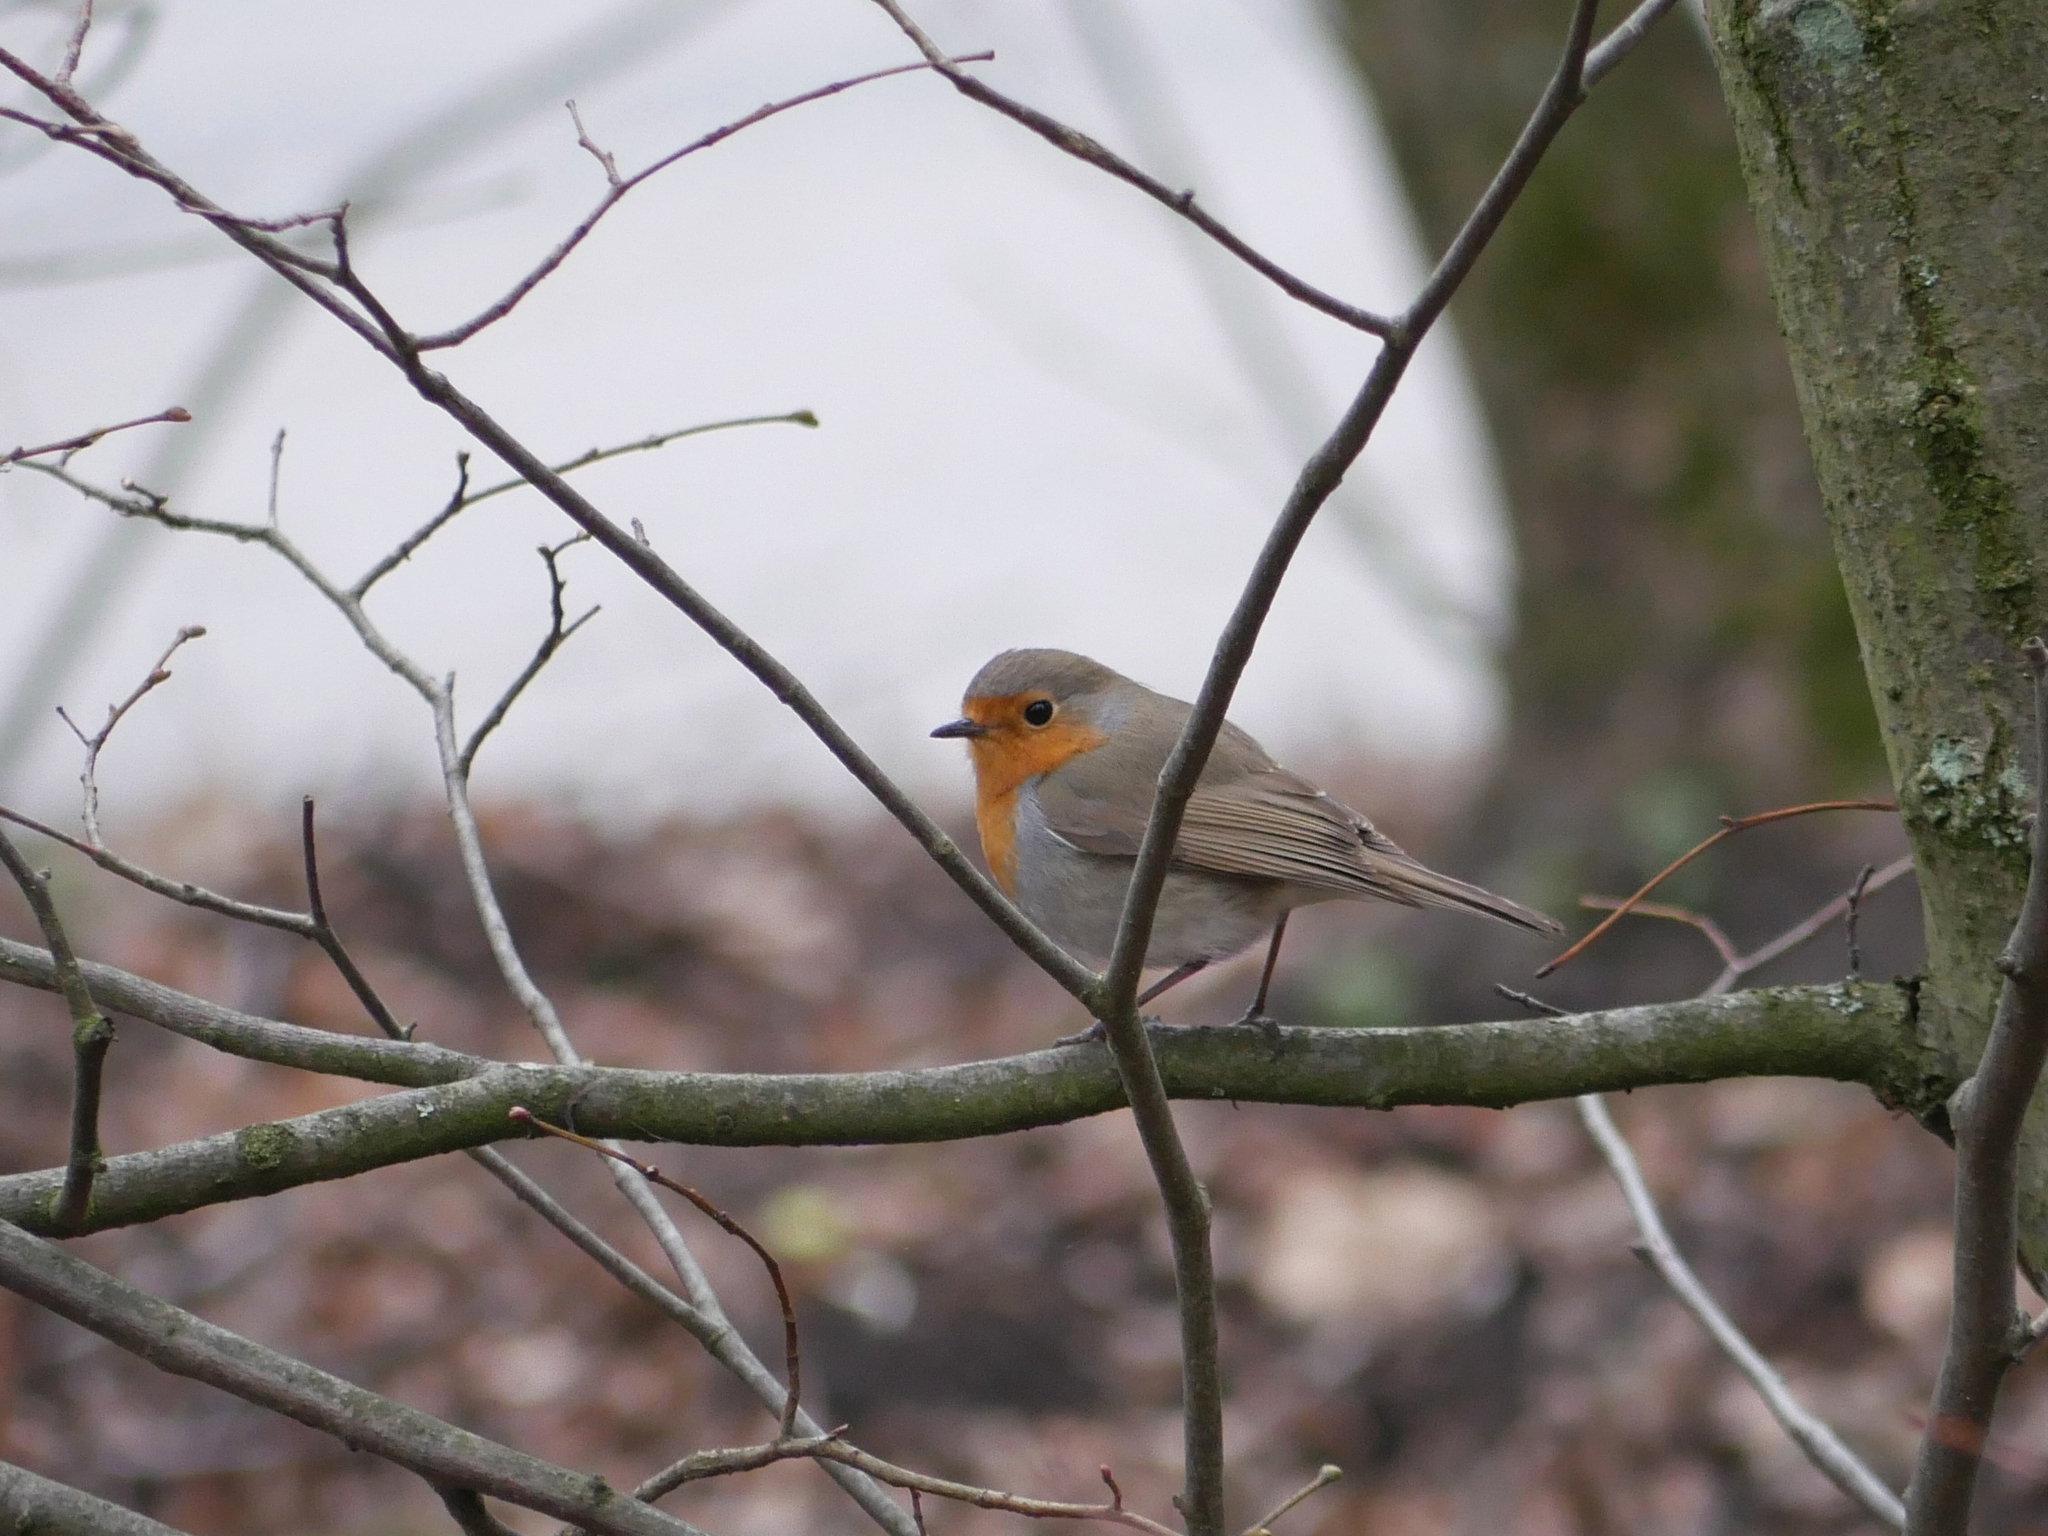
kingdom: Animalia
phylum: Chordata
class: Aves
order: Passeriformes
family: Muscicapidae
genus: Erithacus
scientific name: Erithacus rubecula
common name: European robin
